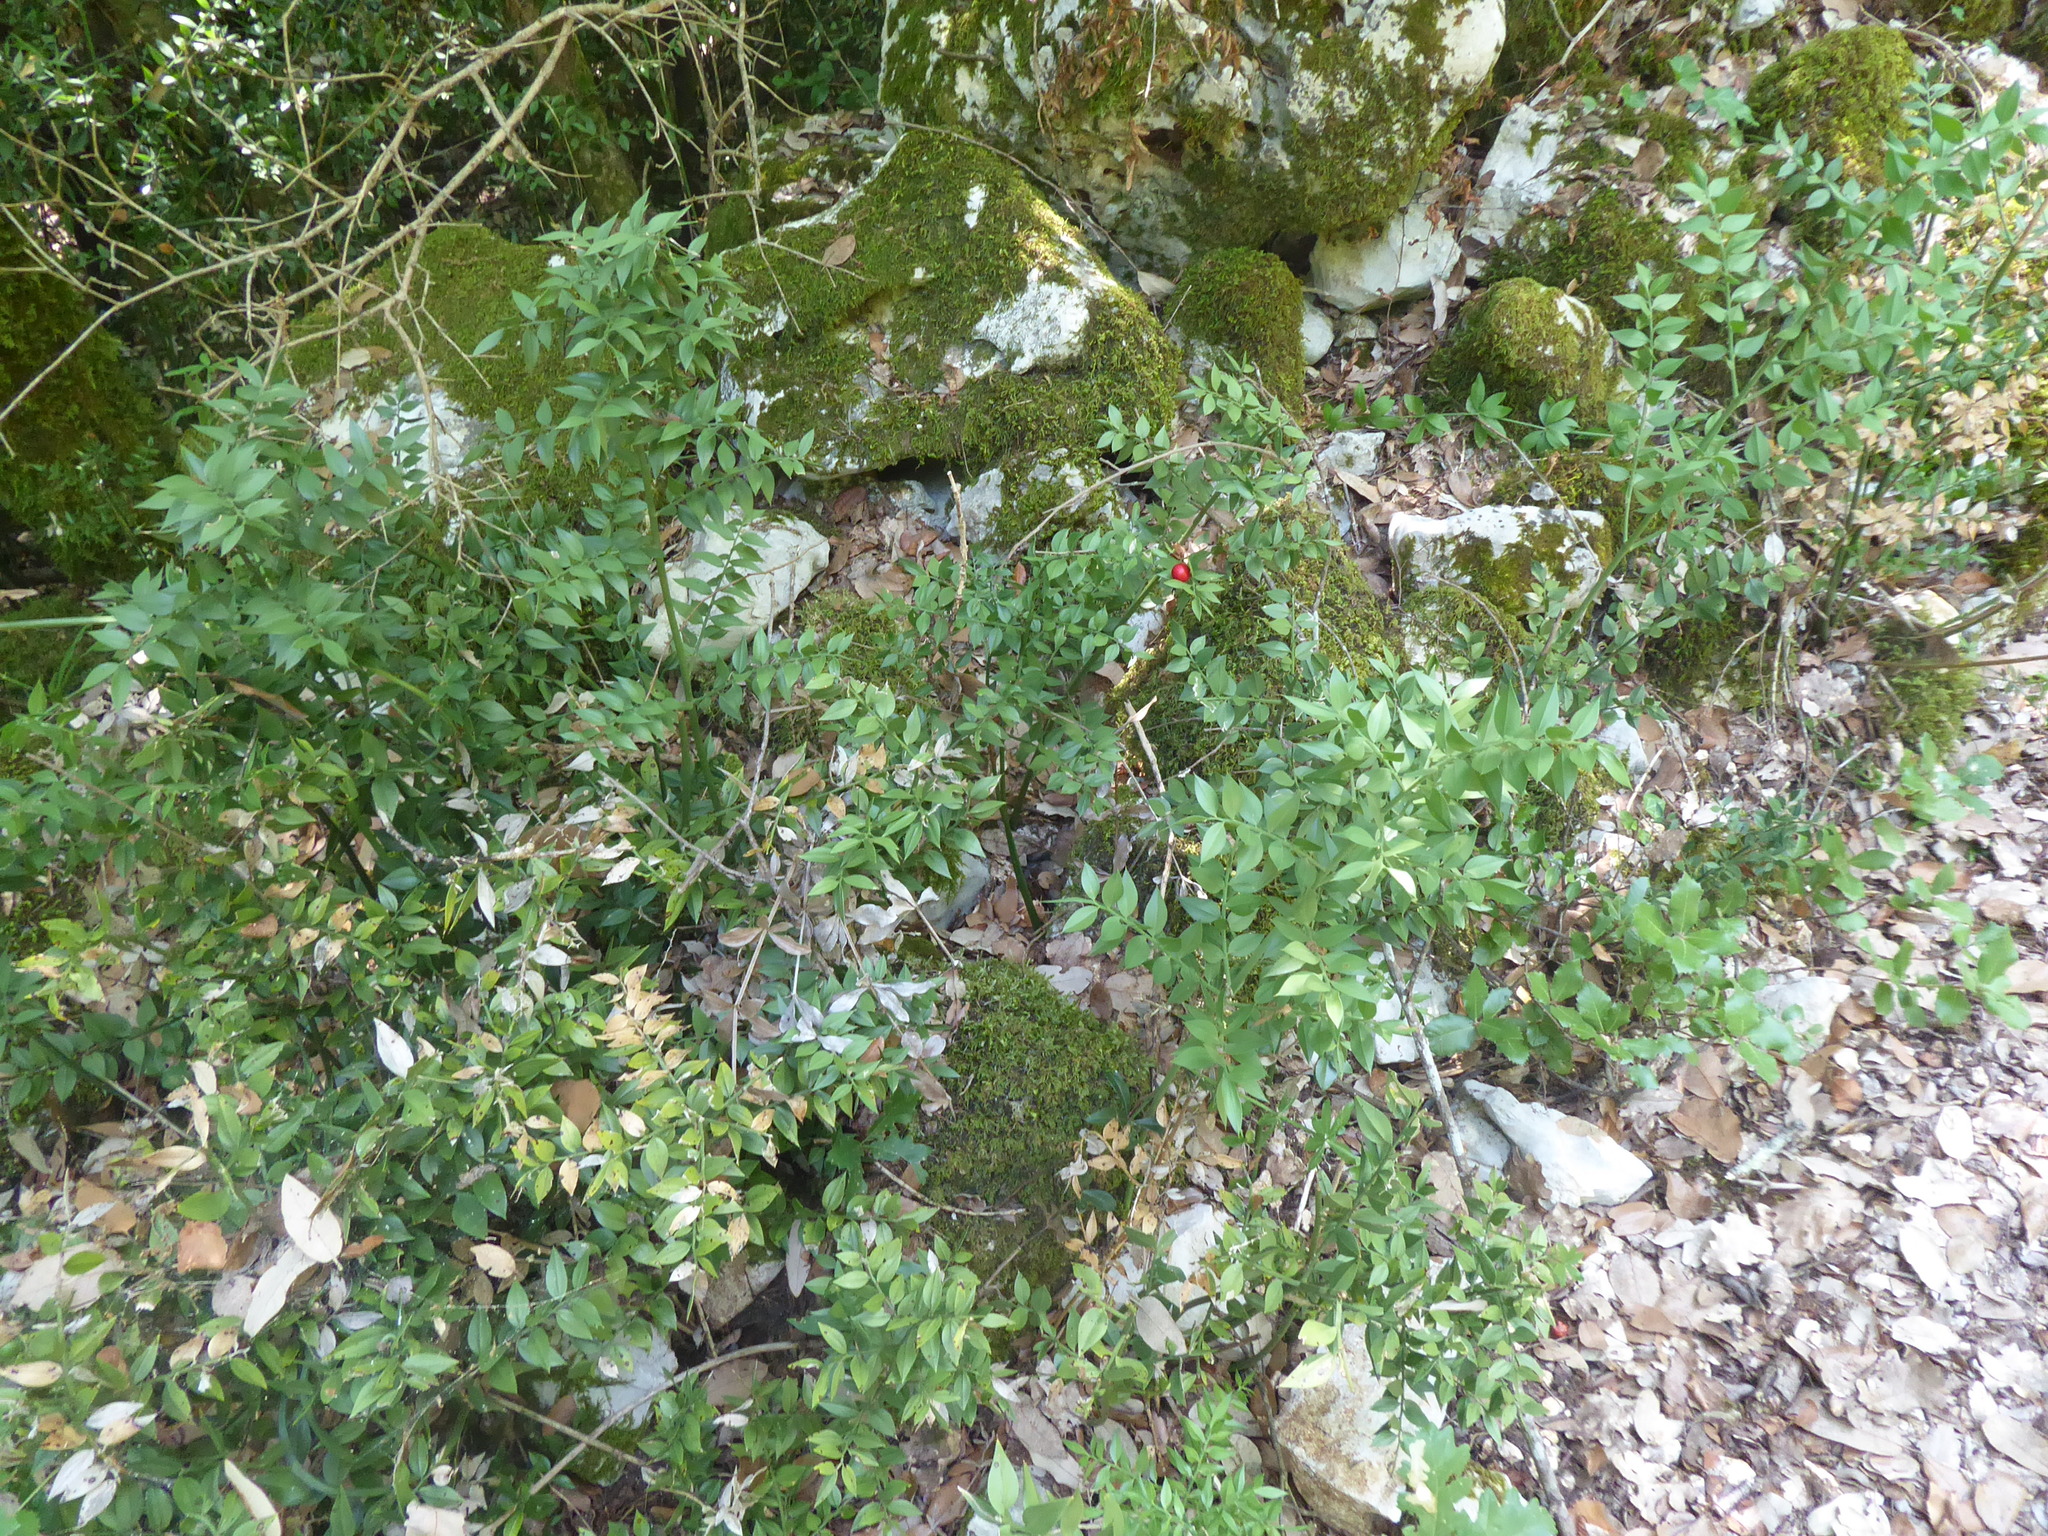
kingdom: Plantae
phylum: Tracheophyta
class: Liliopsida
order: Asparagales
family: Asparagaceae
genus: Ruscus
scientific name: Ruscus aculeatus
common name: Butcher's-broom
